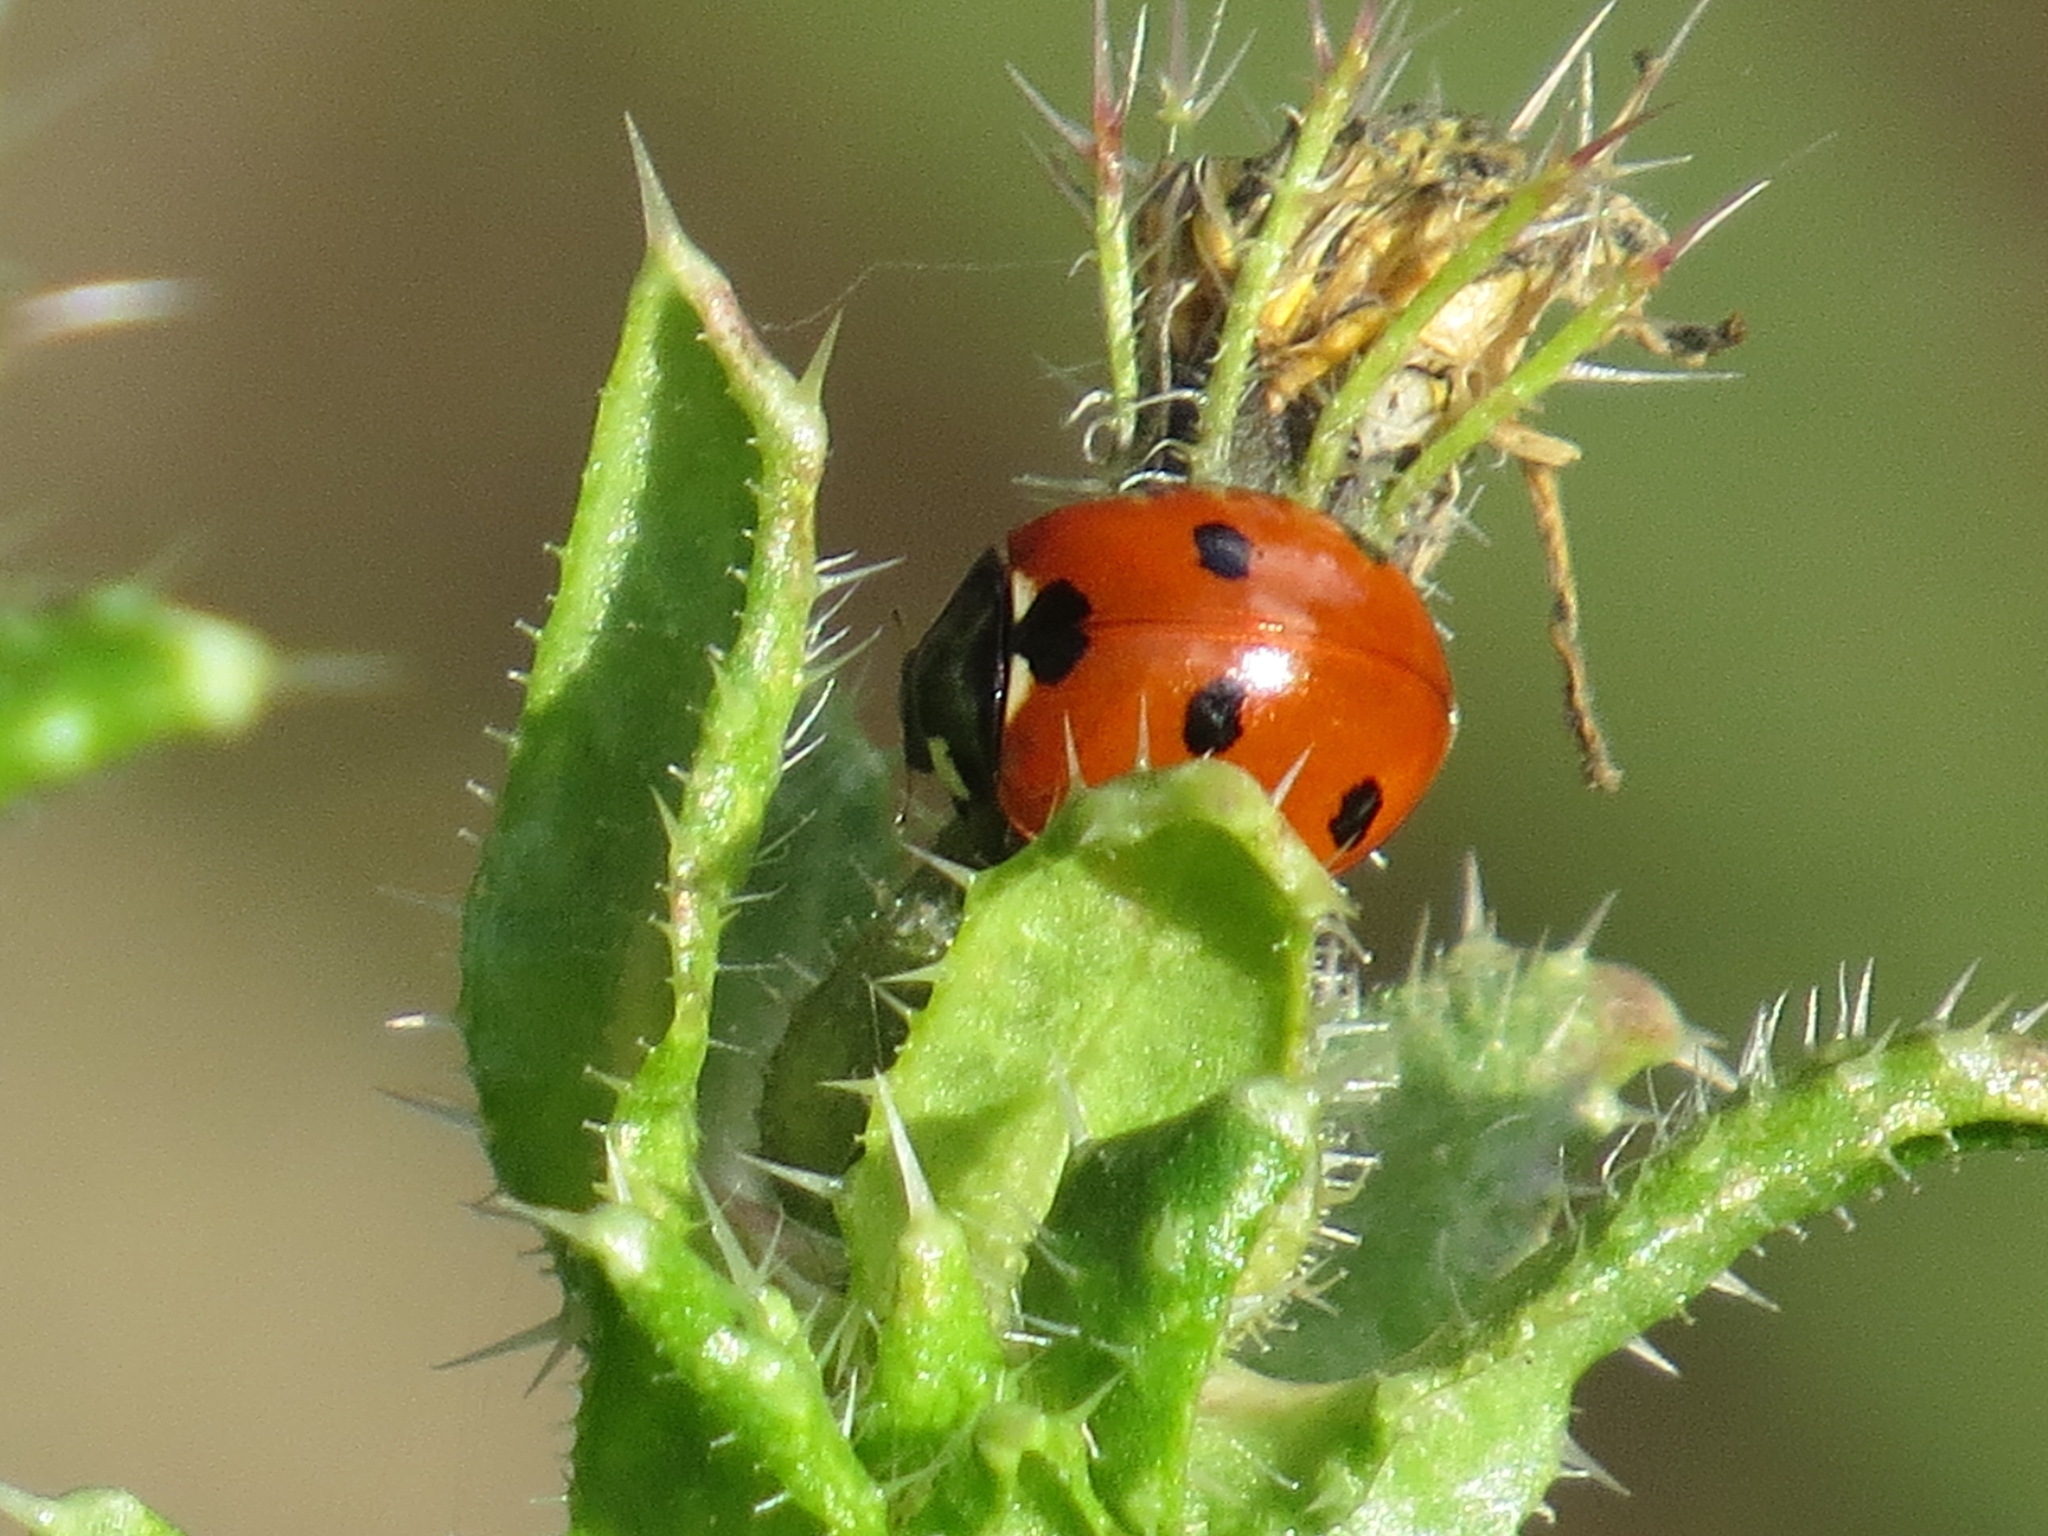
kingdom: Animalia
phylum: Arthropoda
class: Insecta
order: Coleoptera
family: Coccinellidae
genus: Coccinella
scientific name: Coccinella septempunctata
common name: Sevenspotted lady beetle
